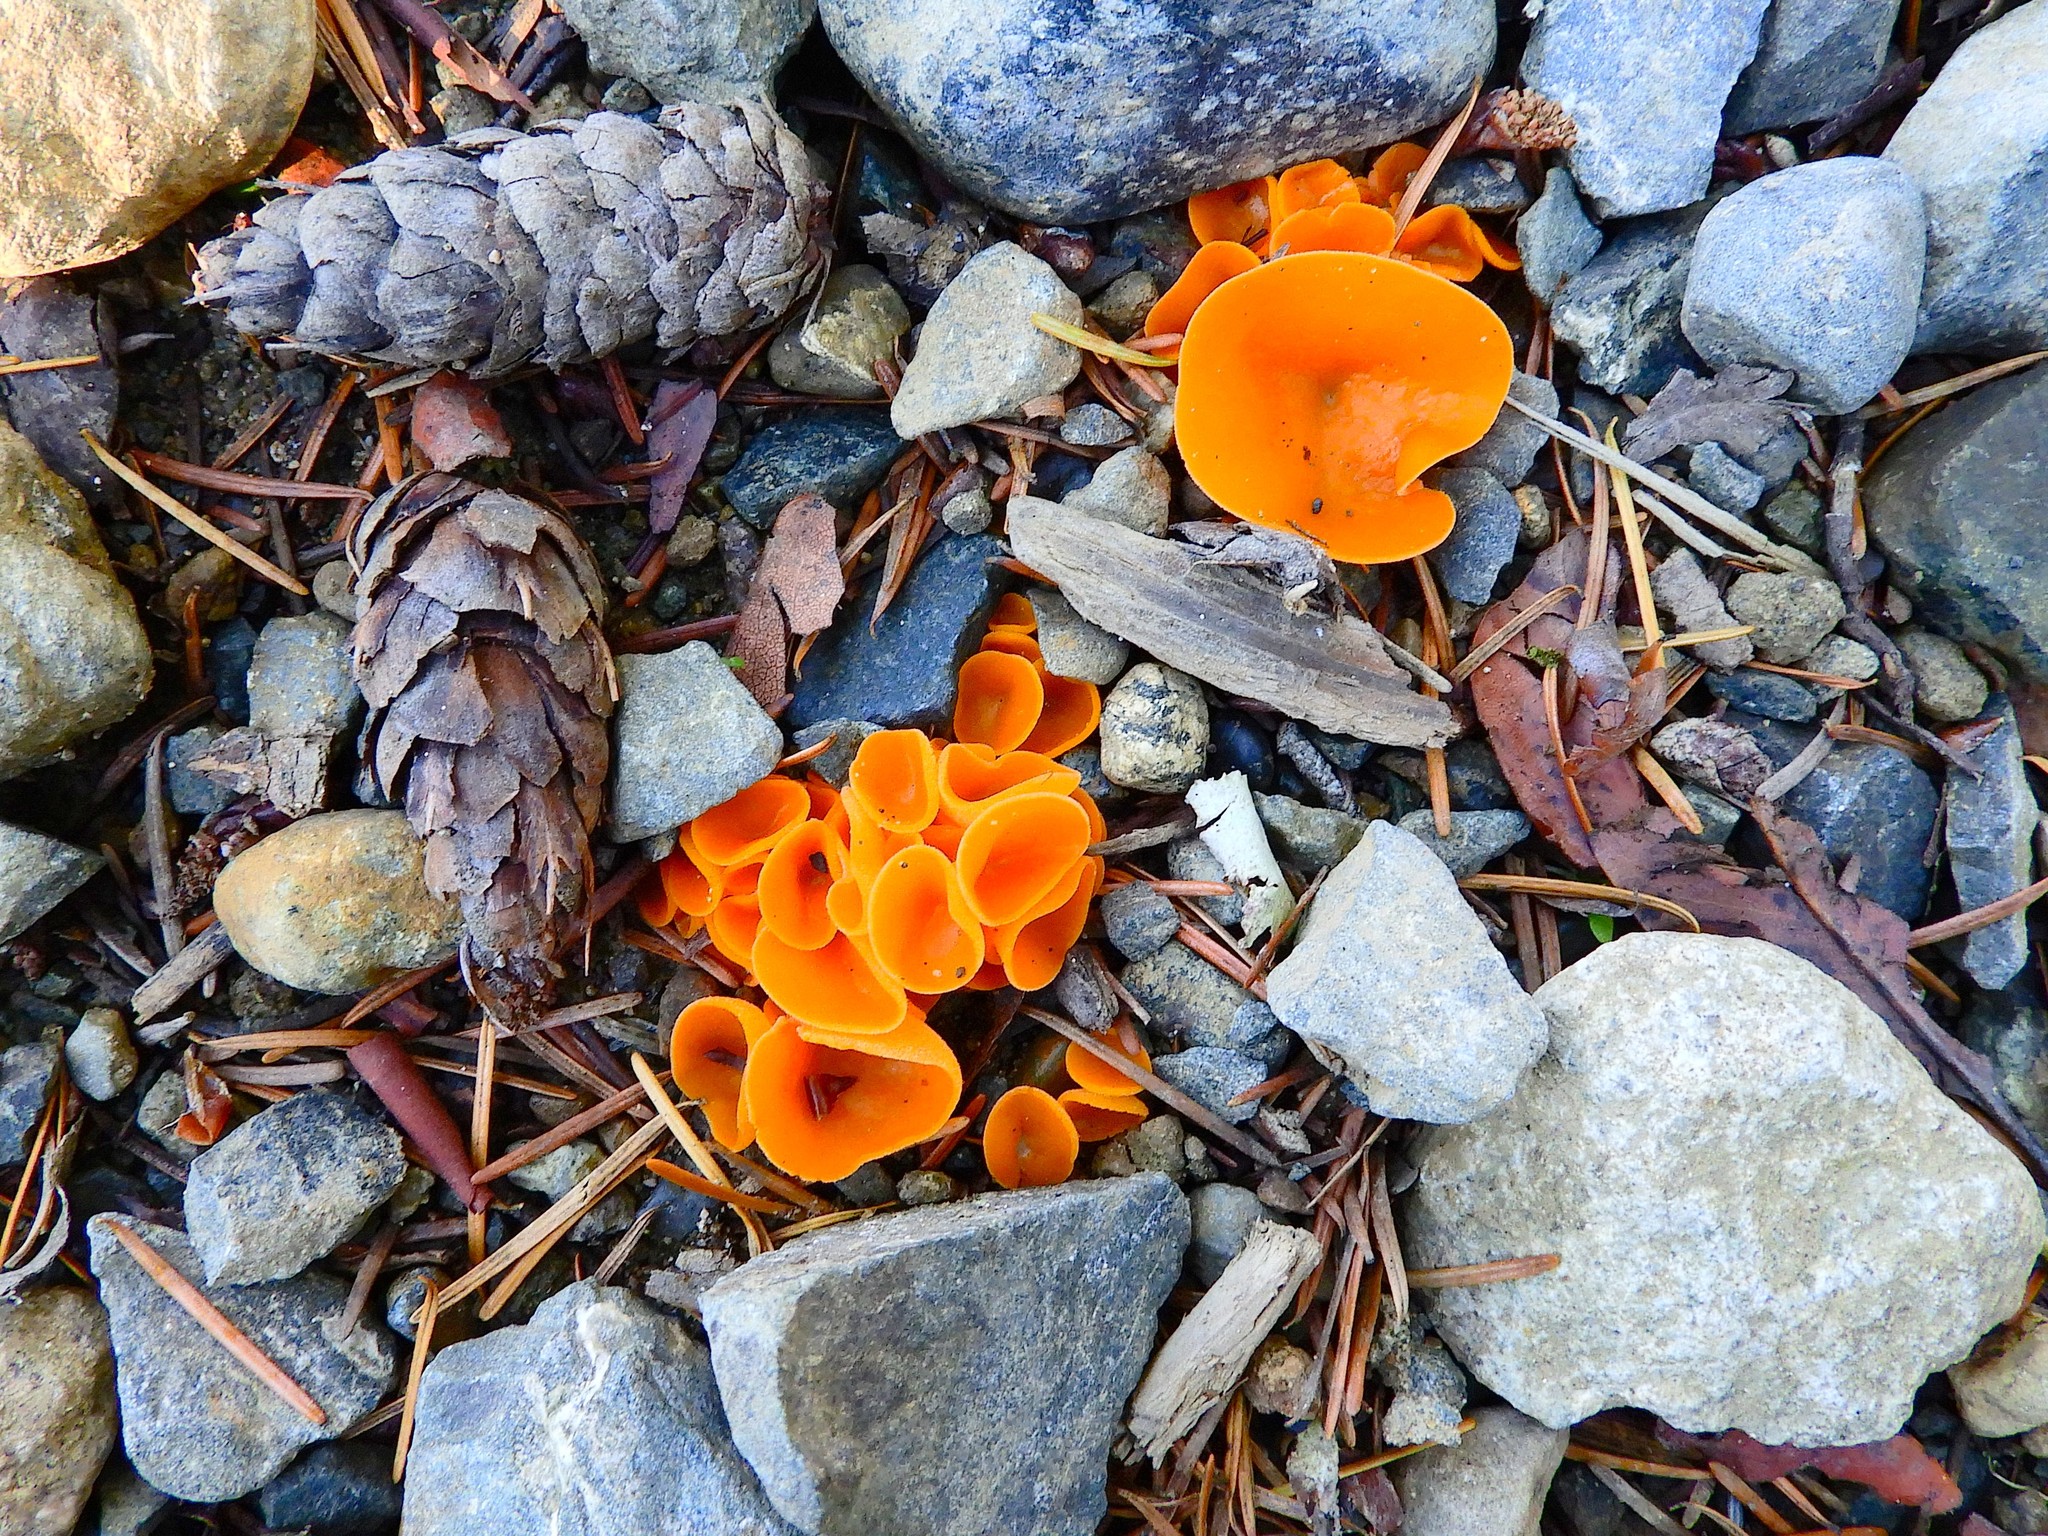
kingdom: Fungi
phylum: Ascomycota
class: Pezizomycetes
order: Pezizales
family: Pyronemataceae
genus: Aleuria
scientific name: Aleuria aurantia
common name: Orange peel fungus
